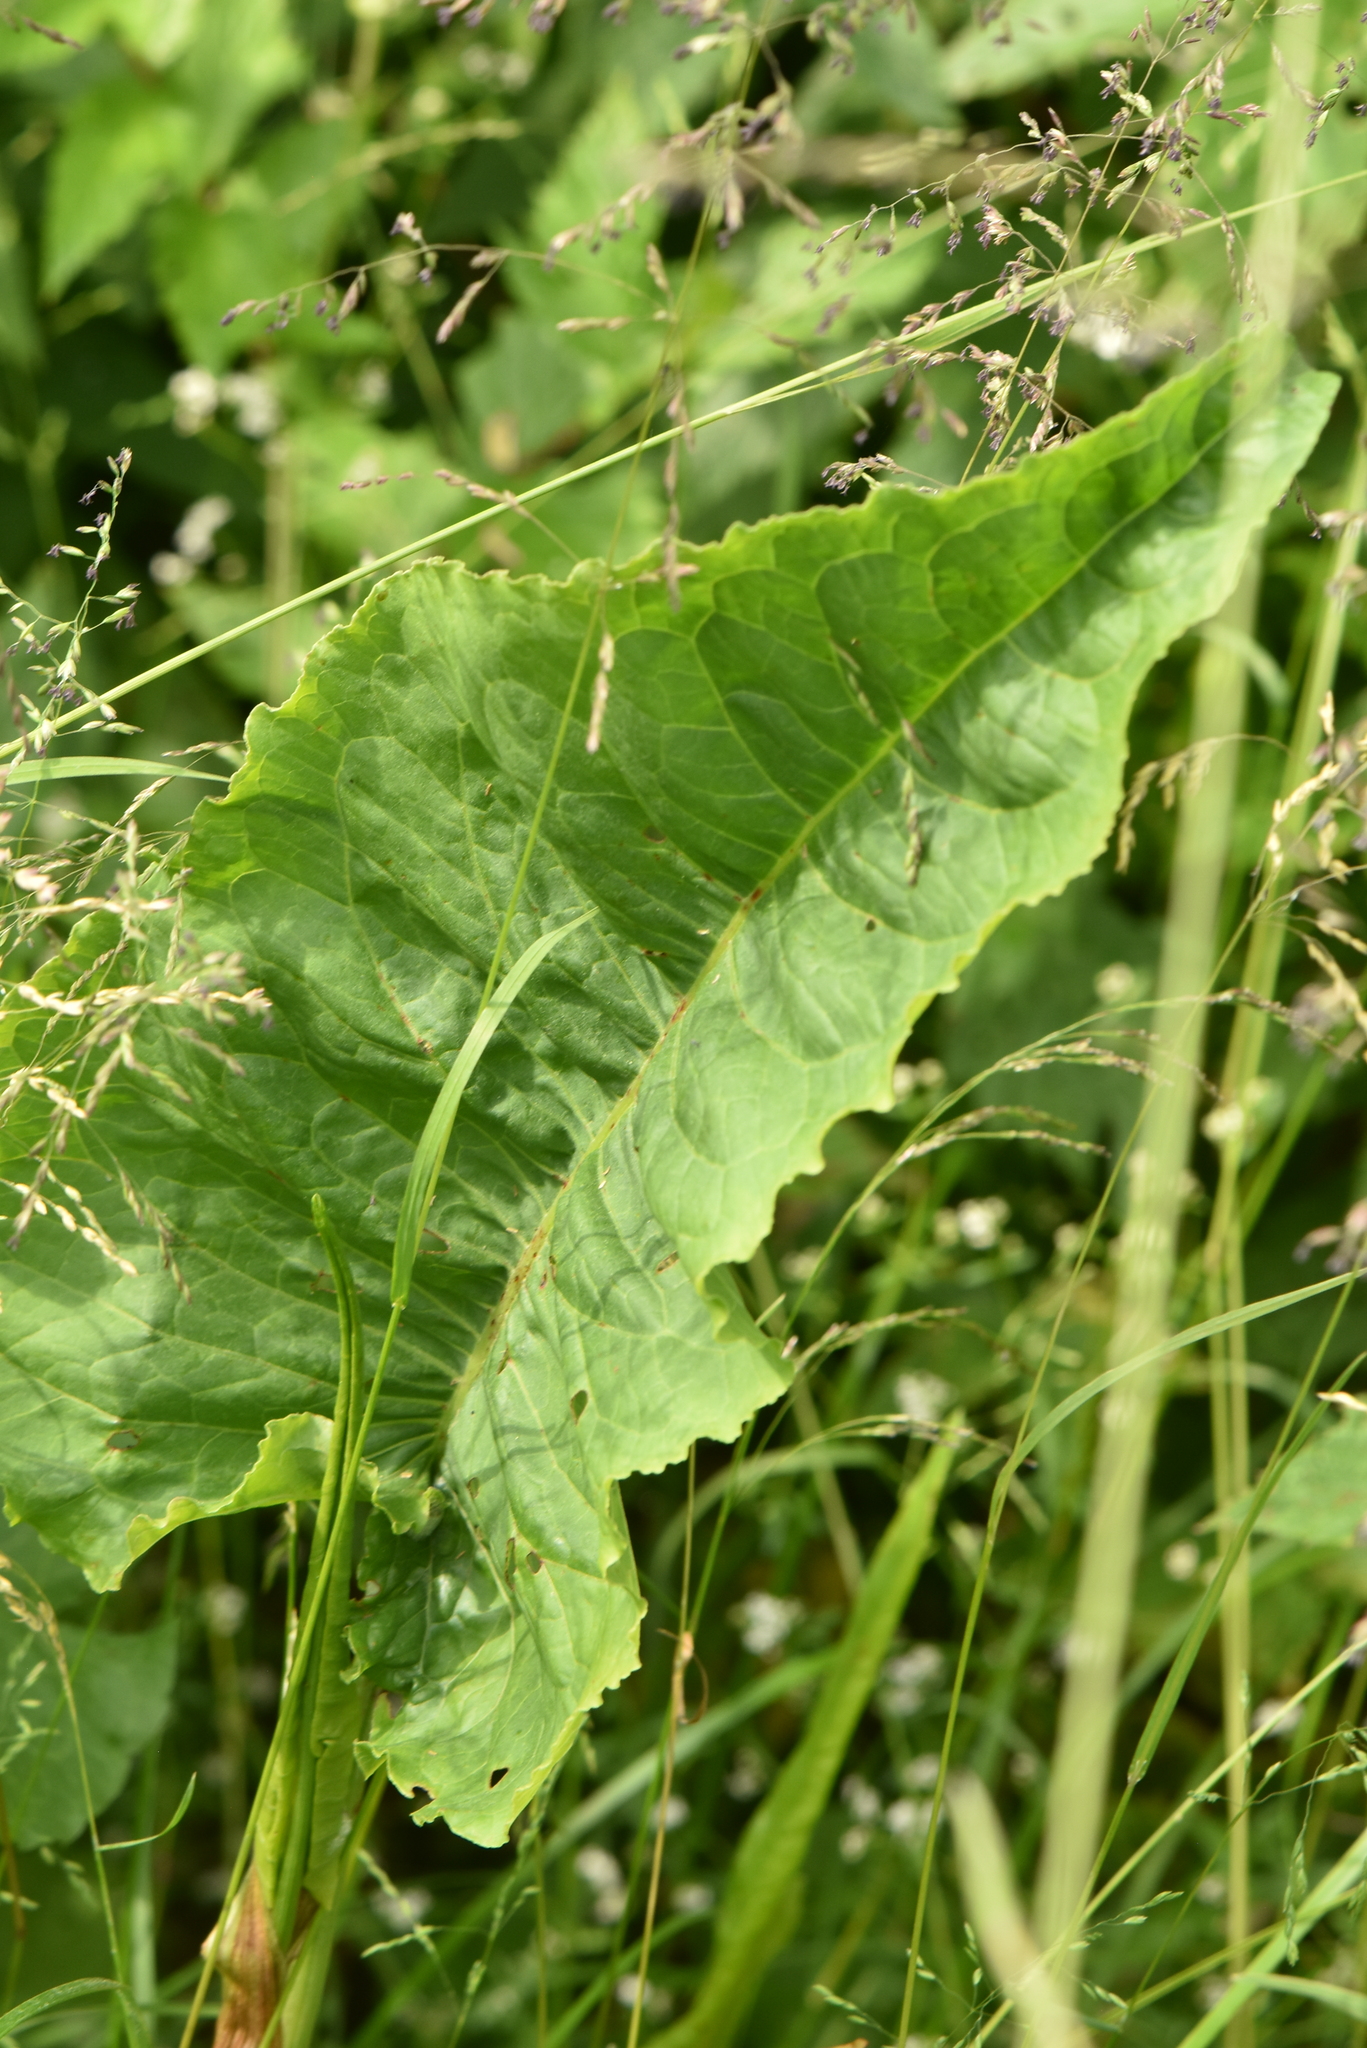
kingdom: Plantae
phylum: Tracheophyta
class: Magnoliopsida
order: Caryophyllales
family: Polygonaceae
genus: Rumex
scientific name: Rumex aquaticus
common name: Scottish dock
